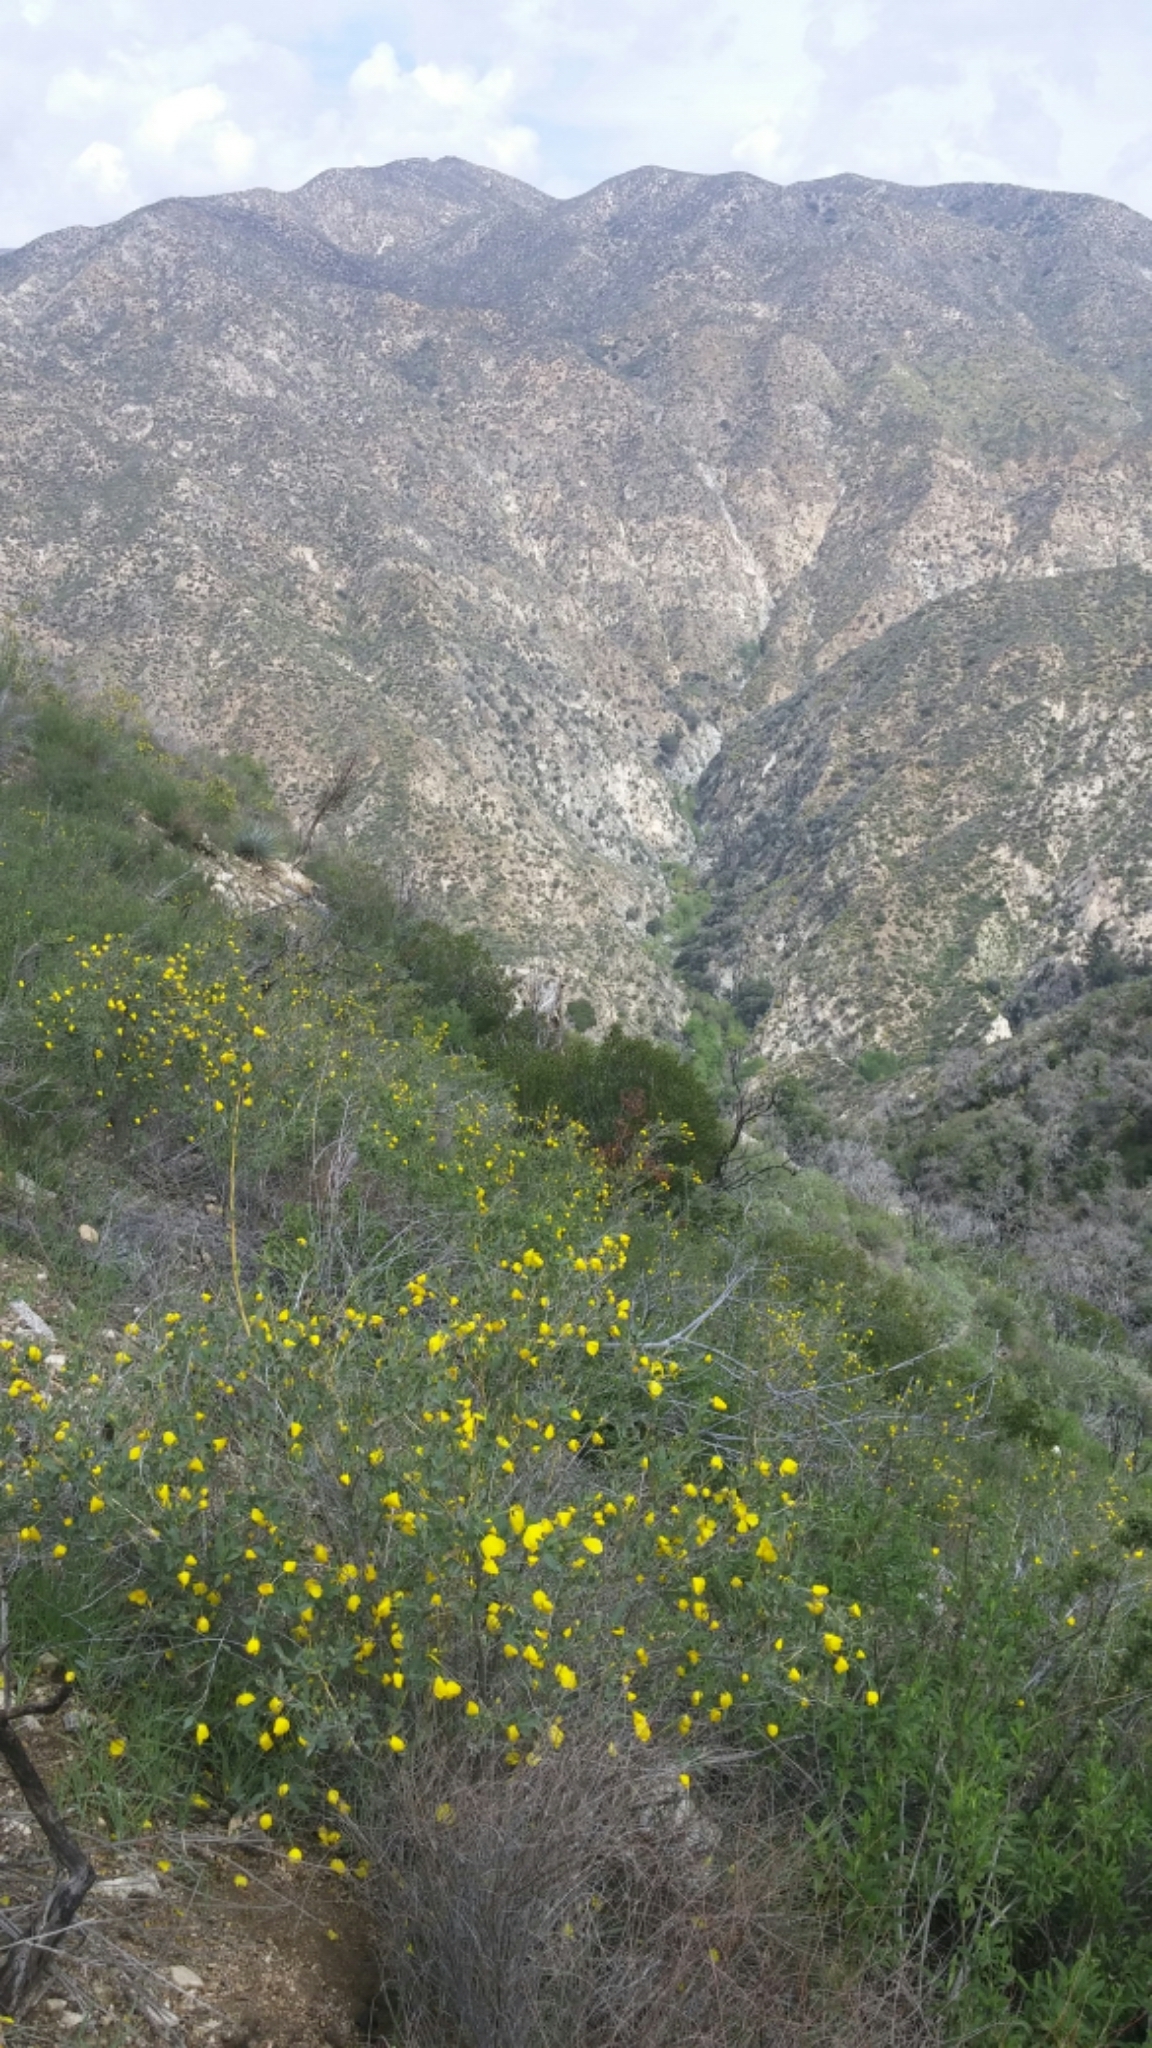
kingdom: Plantae
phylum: Tracheophyta
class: Magnoliopsida
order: Ranunculales
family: Papaveraceae
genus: Dendromecon
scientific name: Dendromecon rigida
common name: Tree poppy
